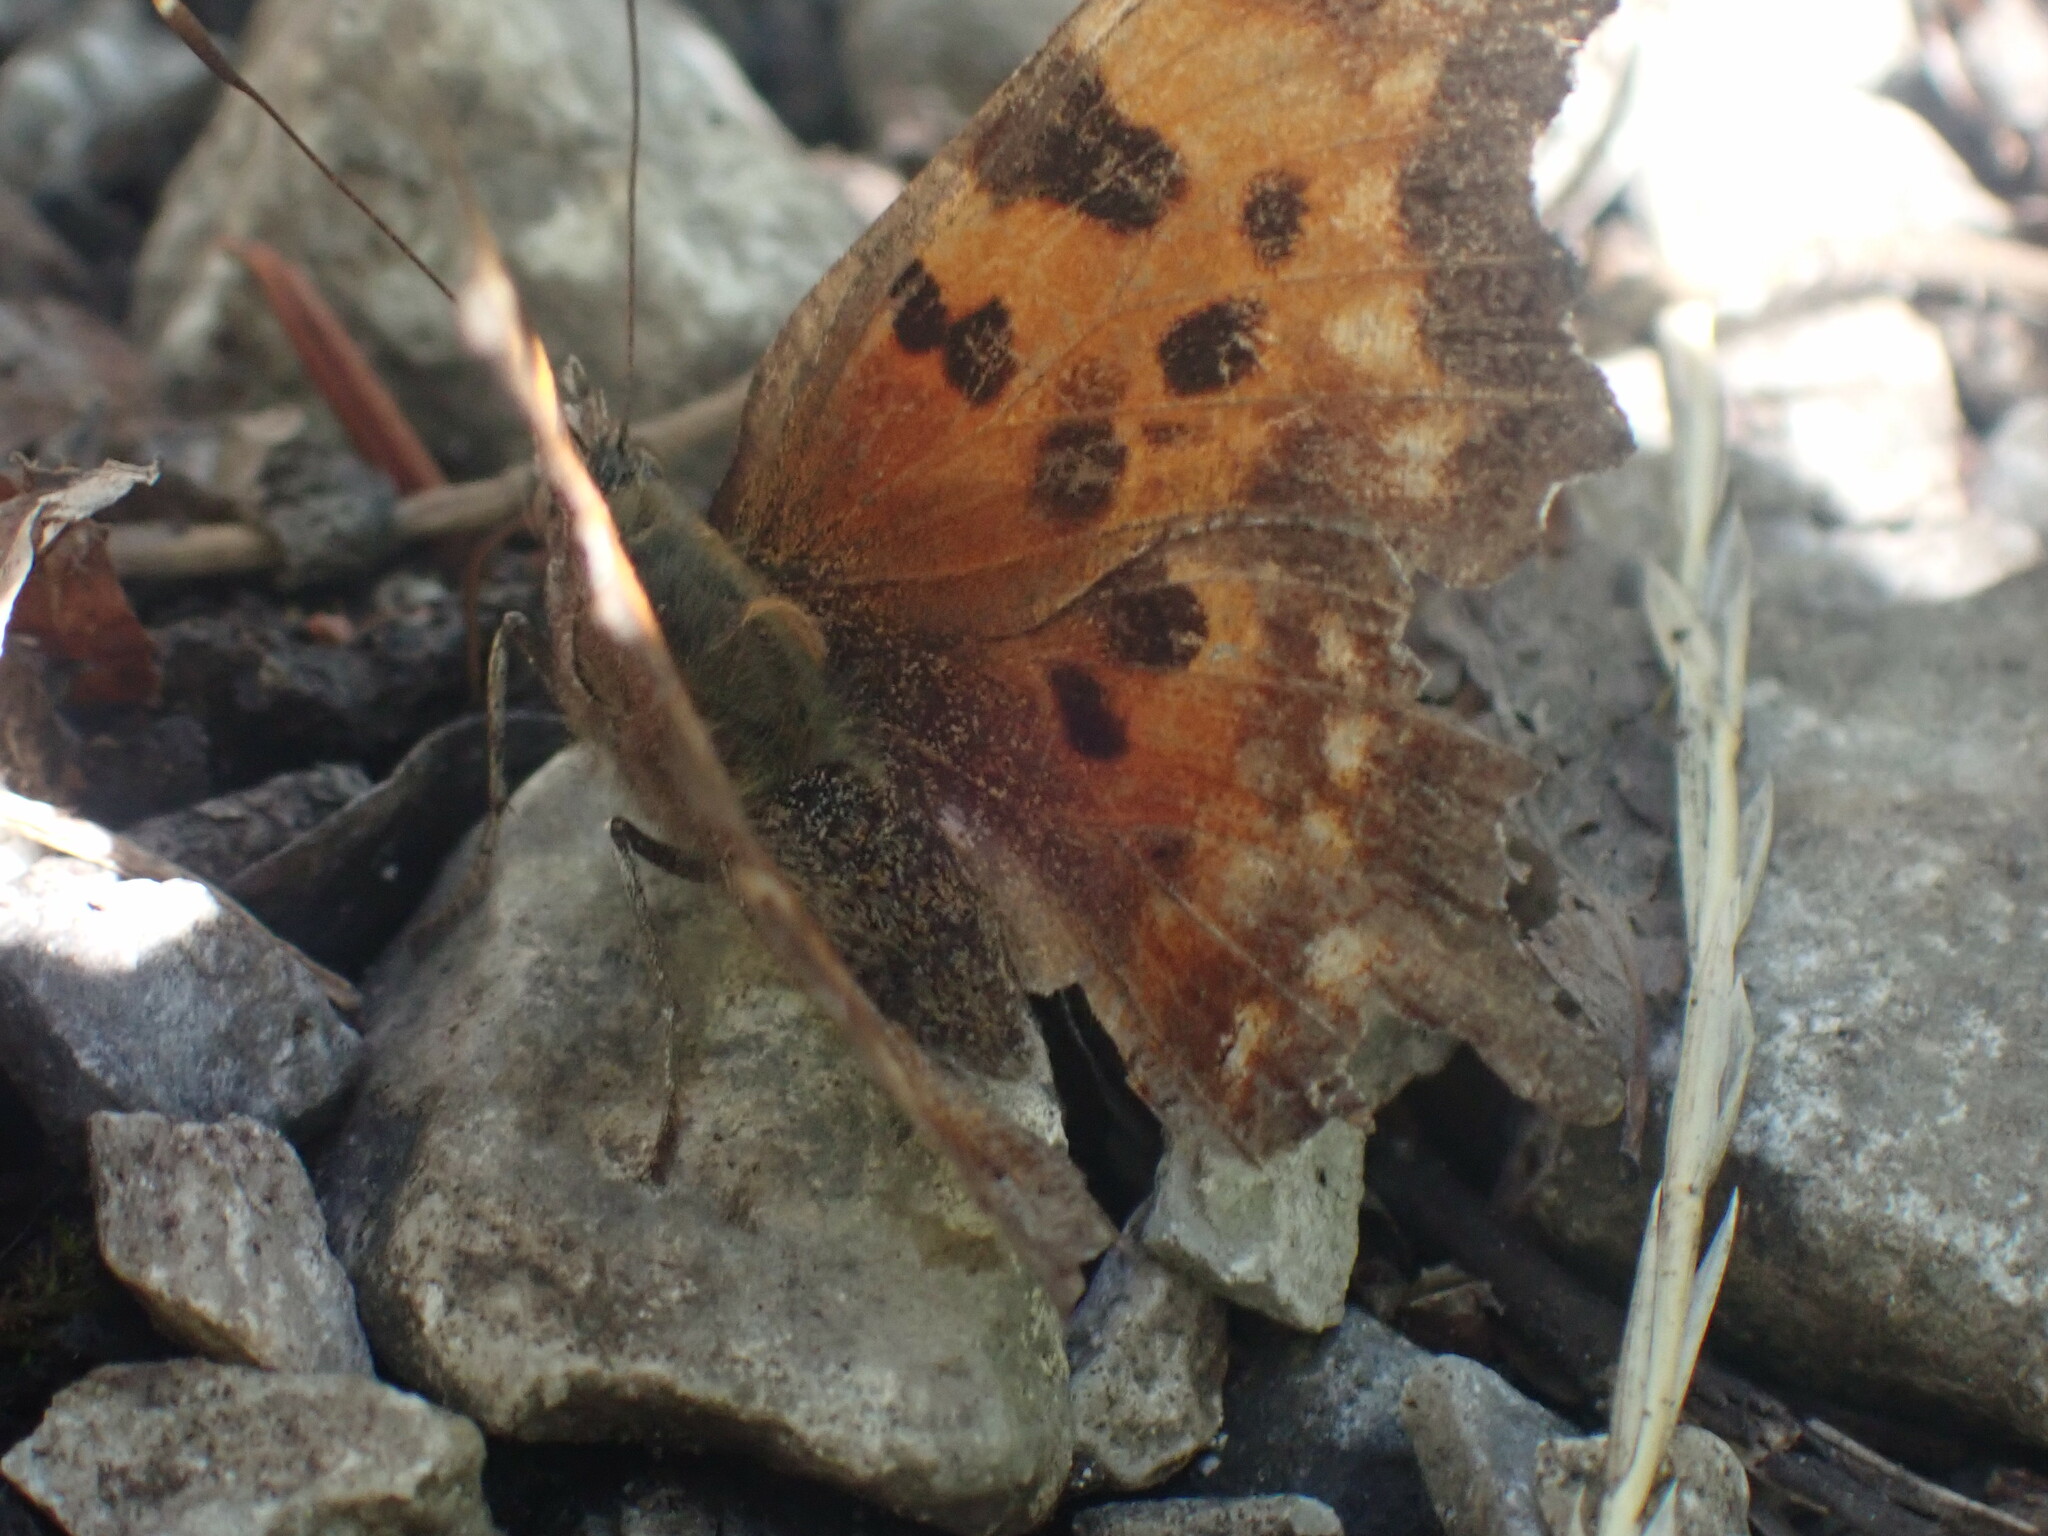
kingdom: Animalia
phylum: Arthropoda
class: Insecta
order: Lepidoptera
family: Nymphalidae
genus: Polygonia
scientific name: Polygonia faunus
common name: Green comma
